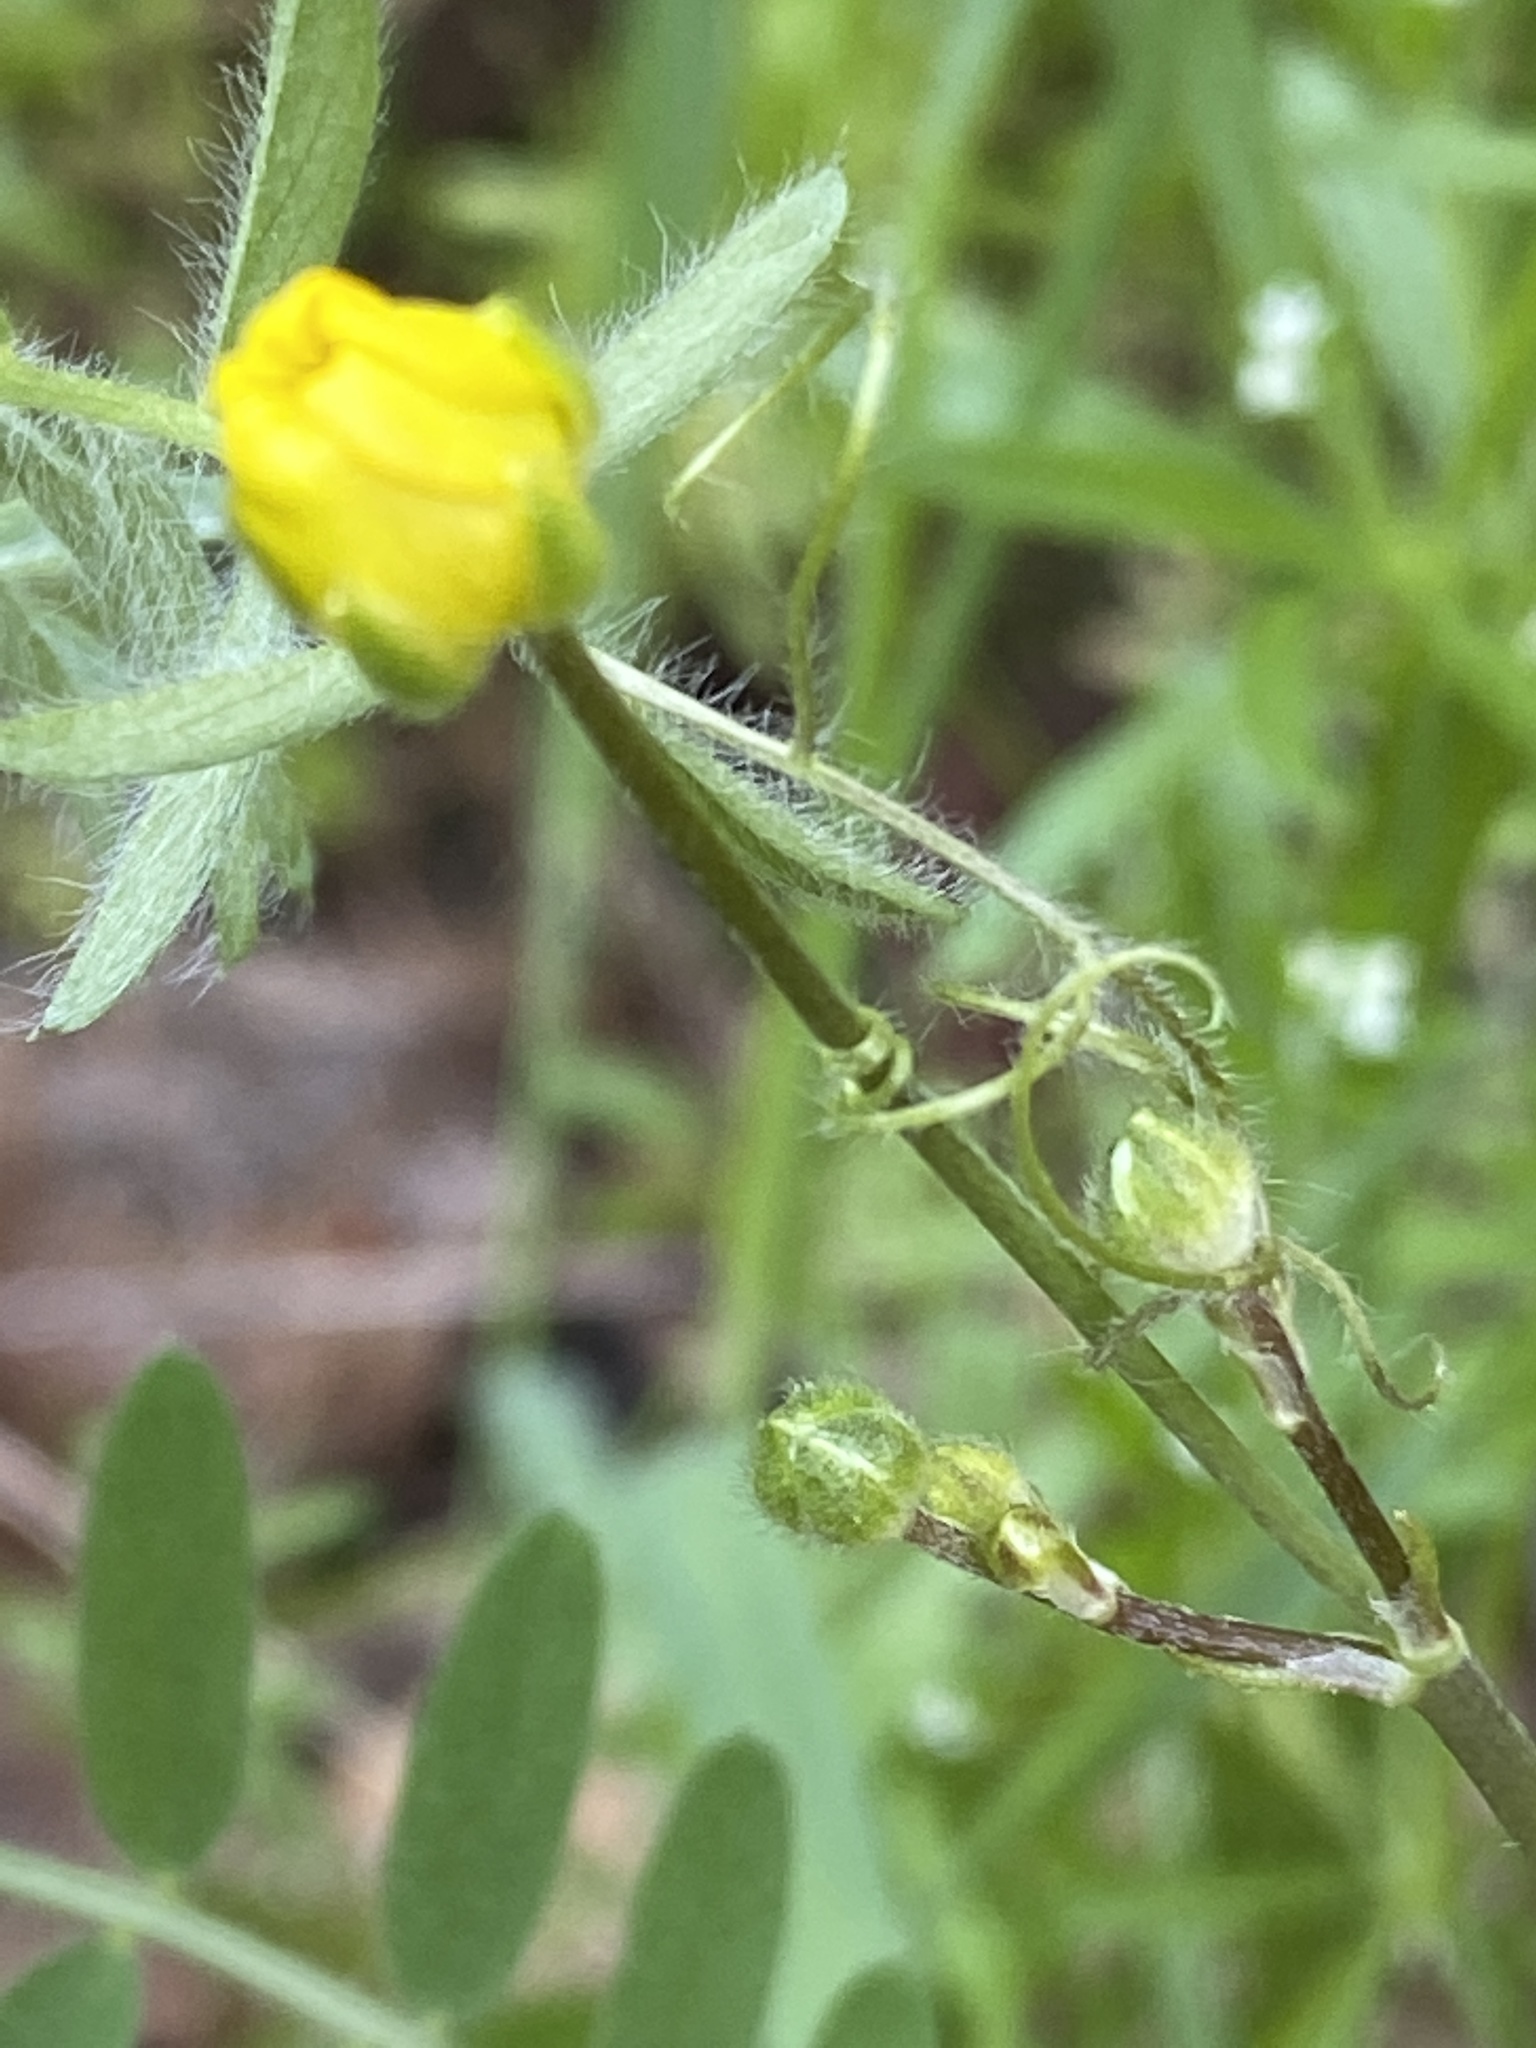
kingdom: Plantae
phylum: Tracheophyta
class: Magnoliopsida
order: Ranunculales
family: Ranunculaceae
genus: Ranunculus
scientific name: Ranunculus occidentalis
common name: Western buttercup
